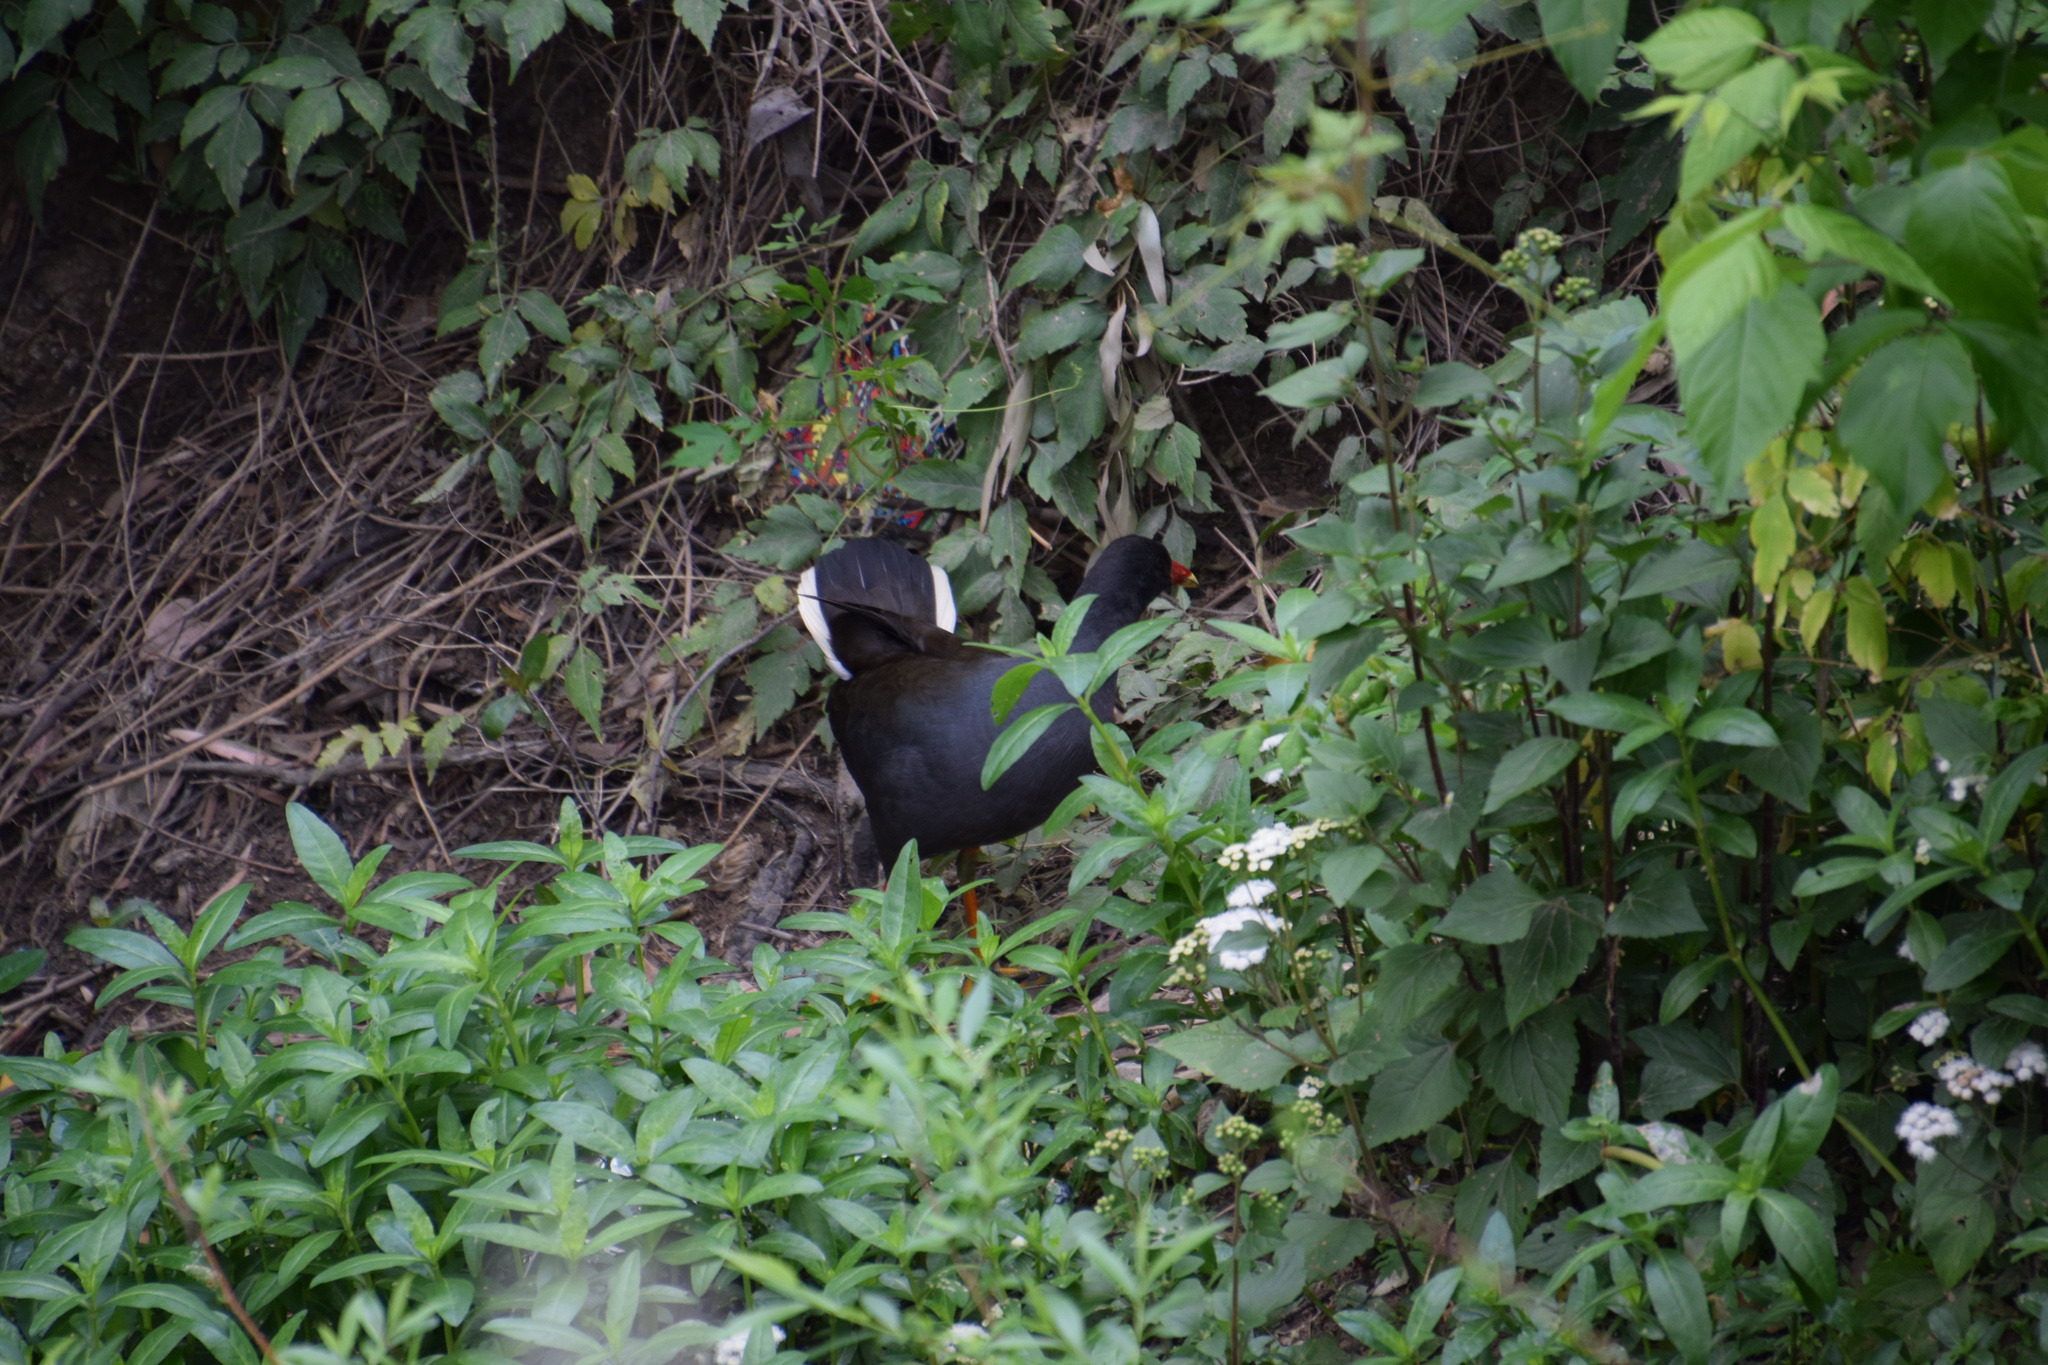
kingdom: Animalia
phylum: Chordata
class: Aves
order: Gruiformes
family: Rallidae
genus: Gallinula
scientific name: Gallinula tenebrosa
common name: Dusky moorhen
